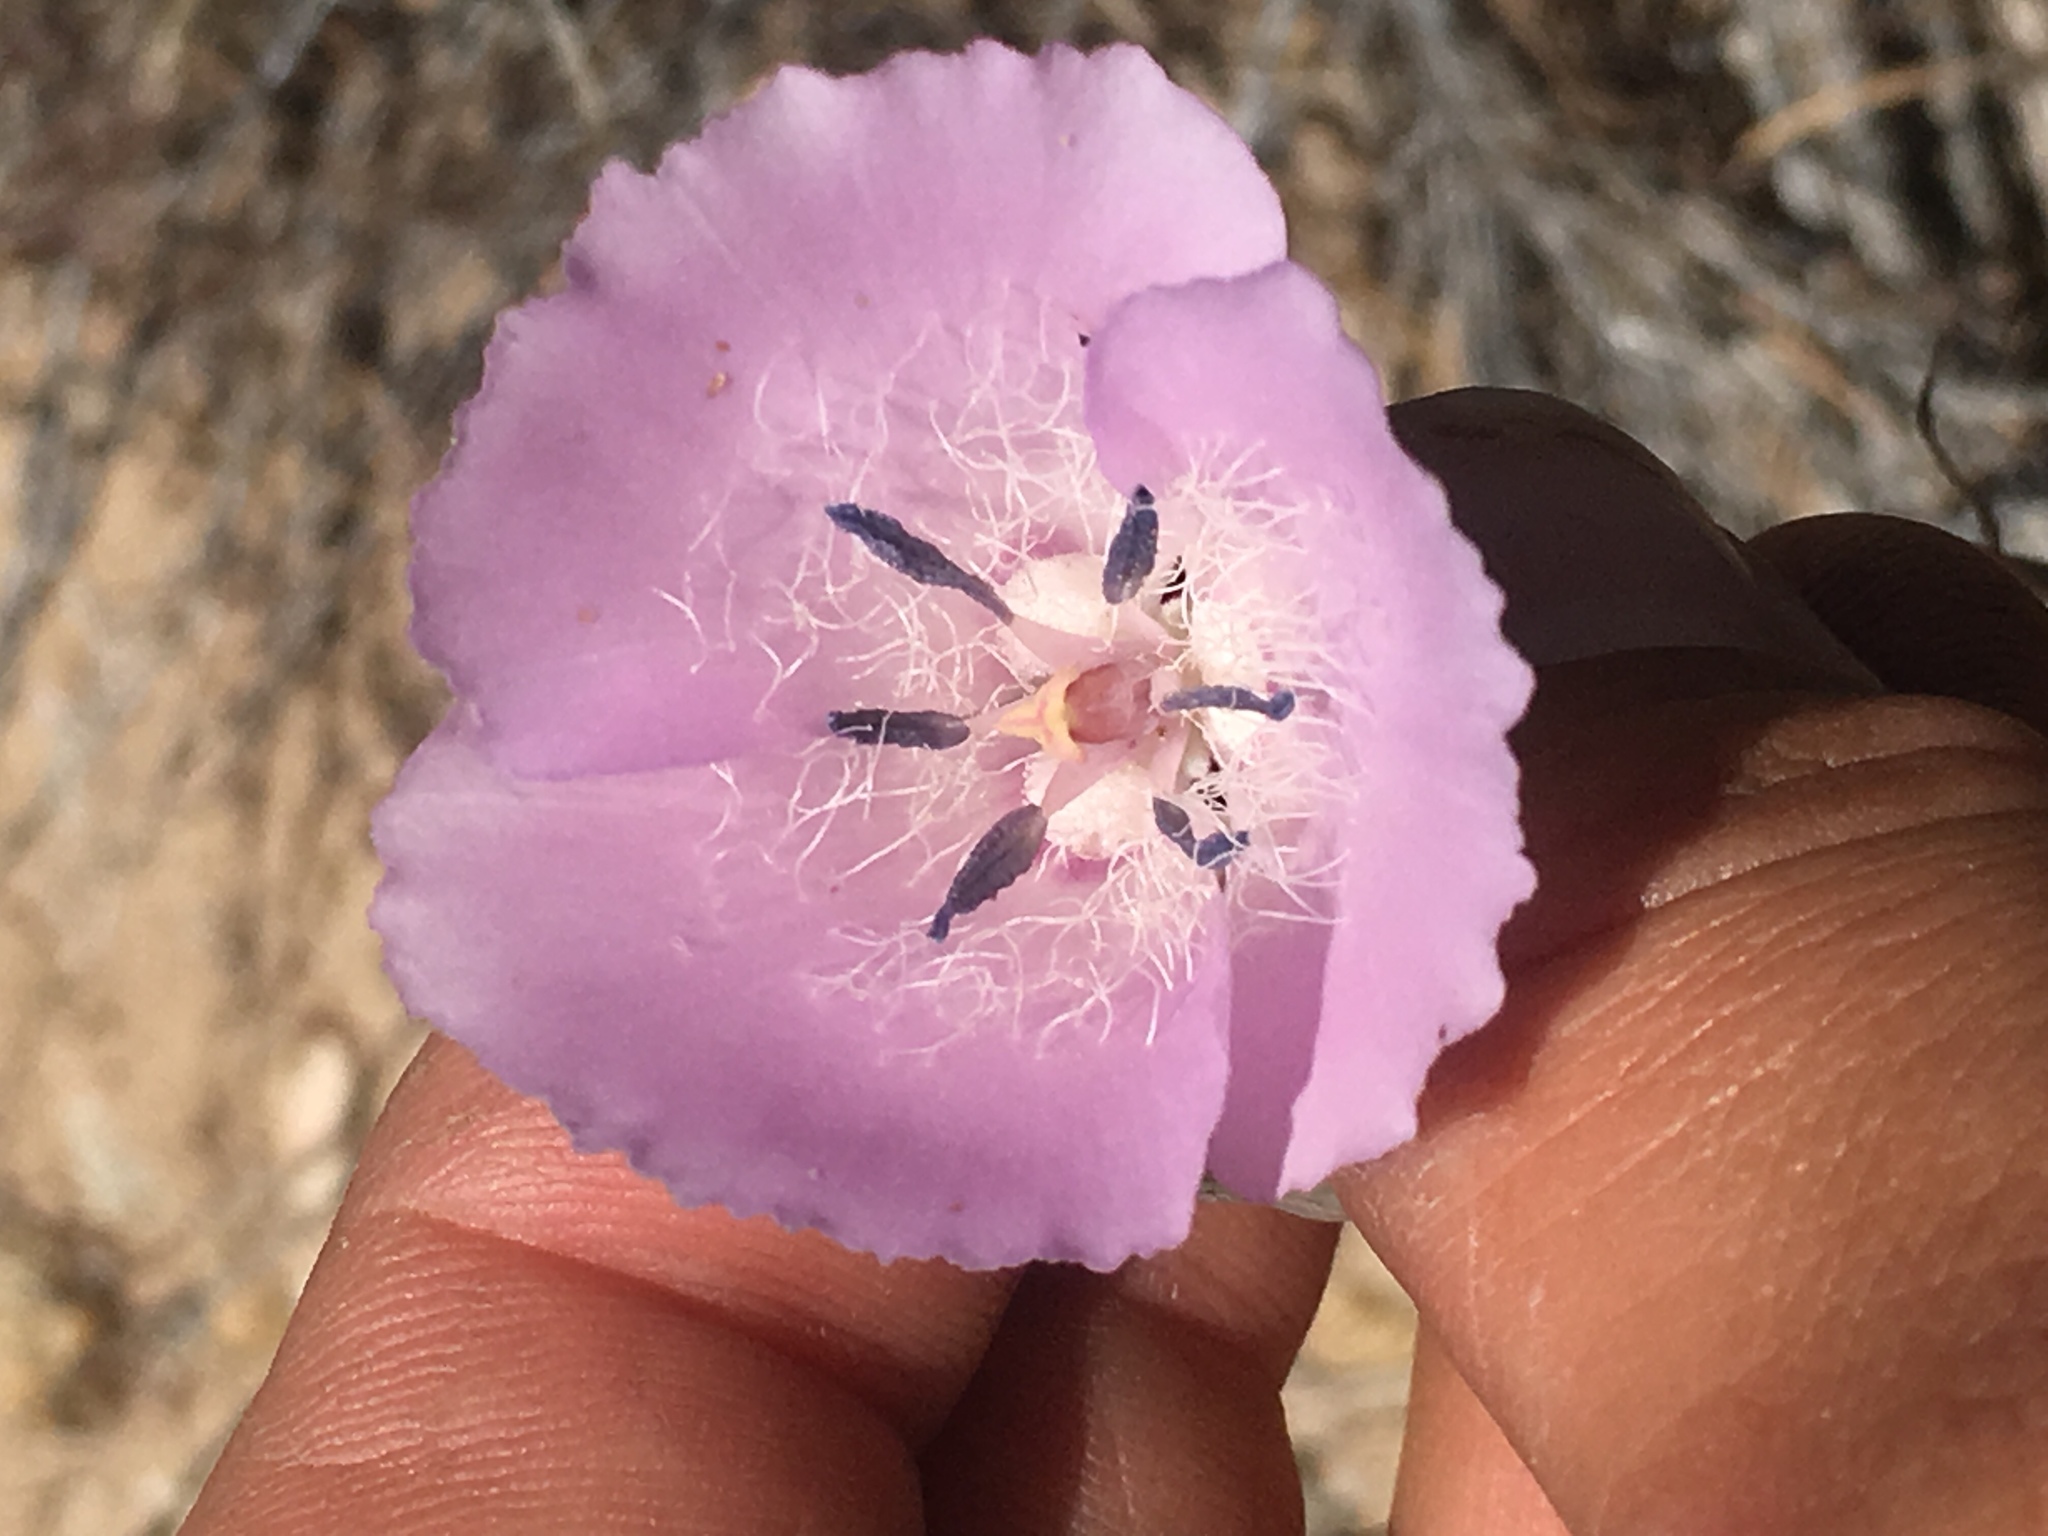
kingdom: Plantae
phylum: Tracheophyta
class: Liliopsida
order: Liliales
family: Liliaceae
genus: Calochortus
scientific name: Calochortus splendens
